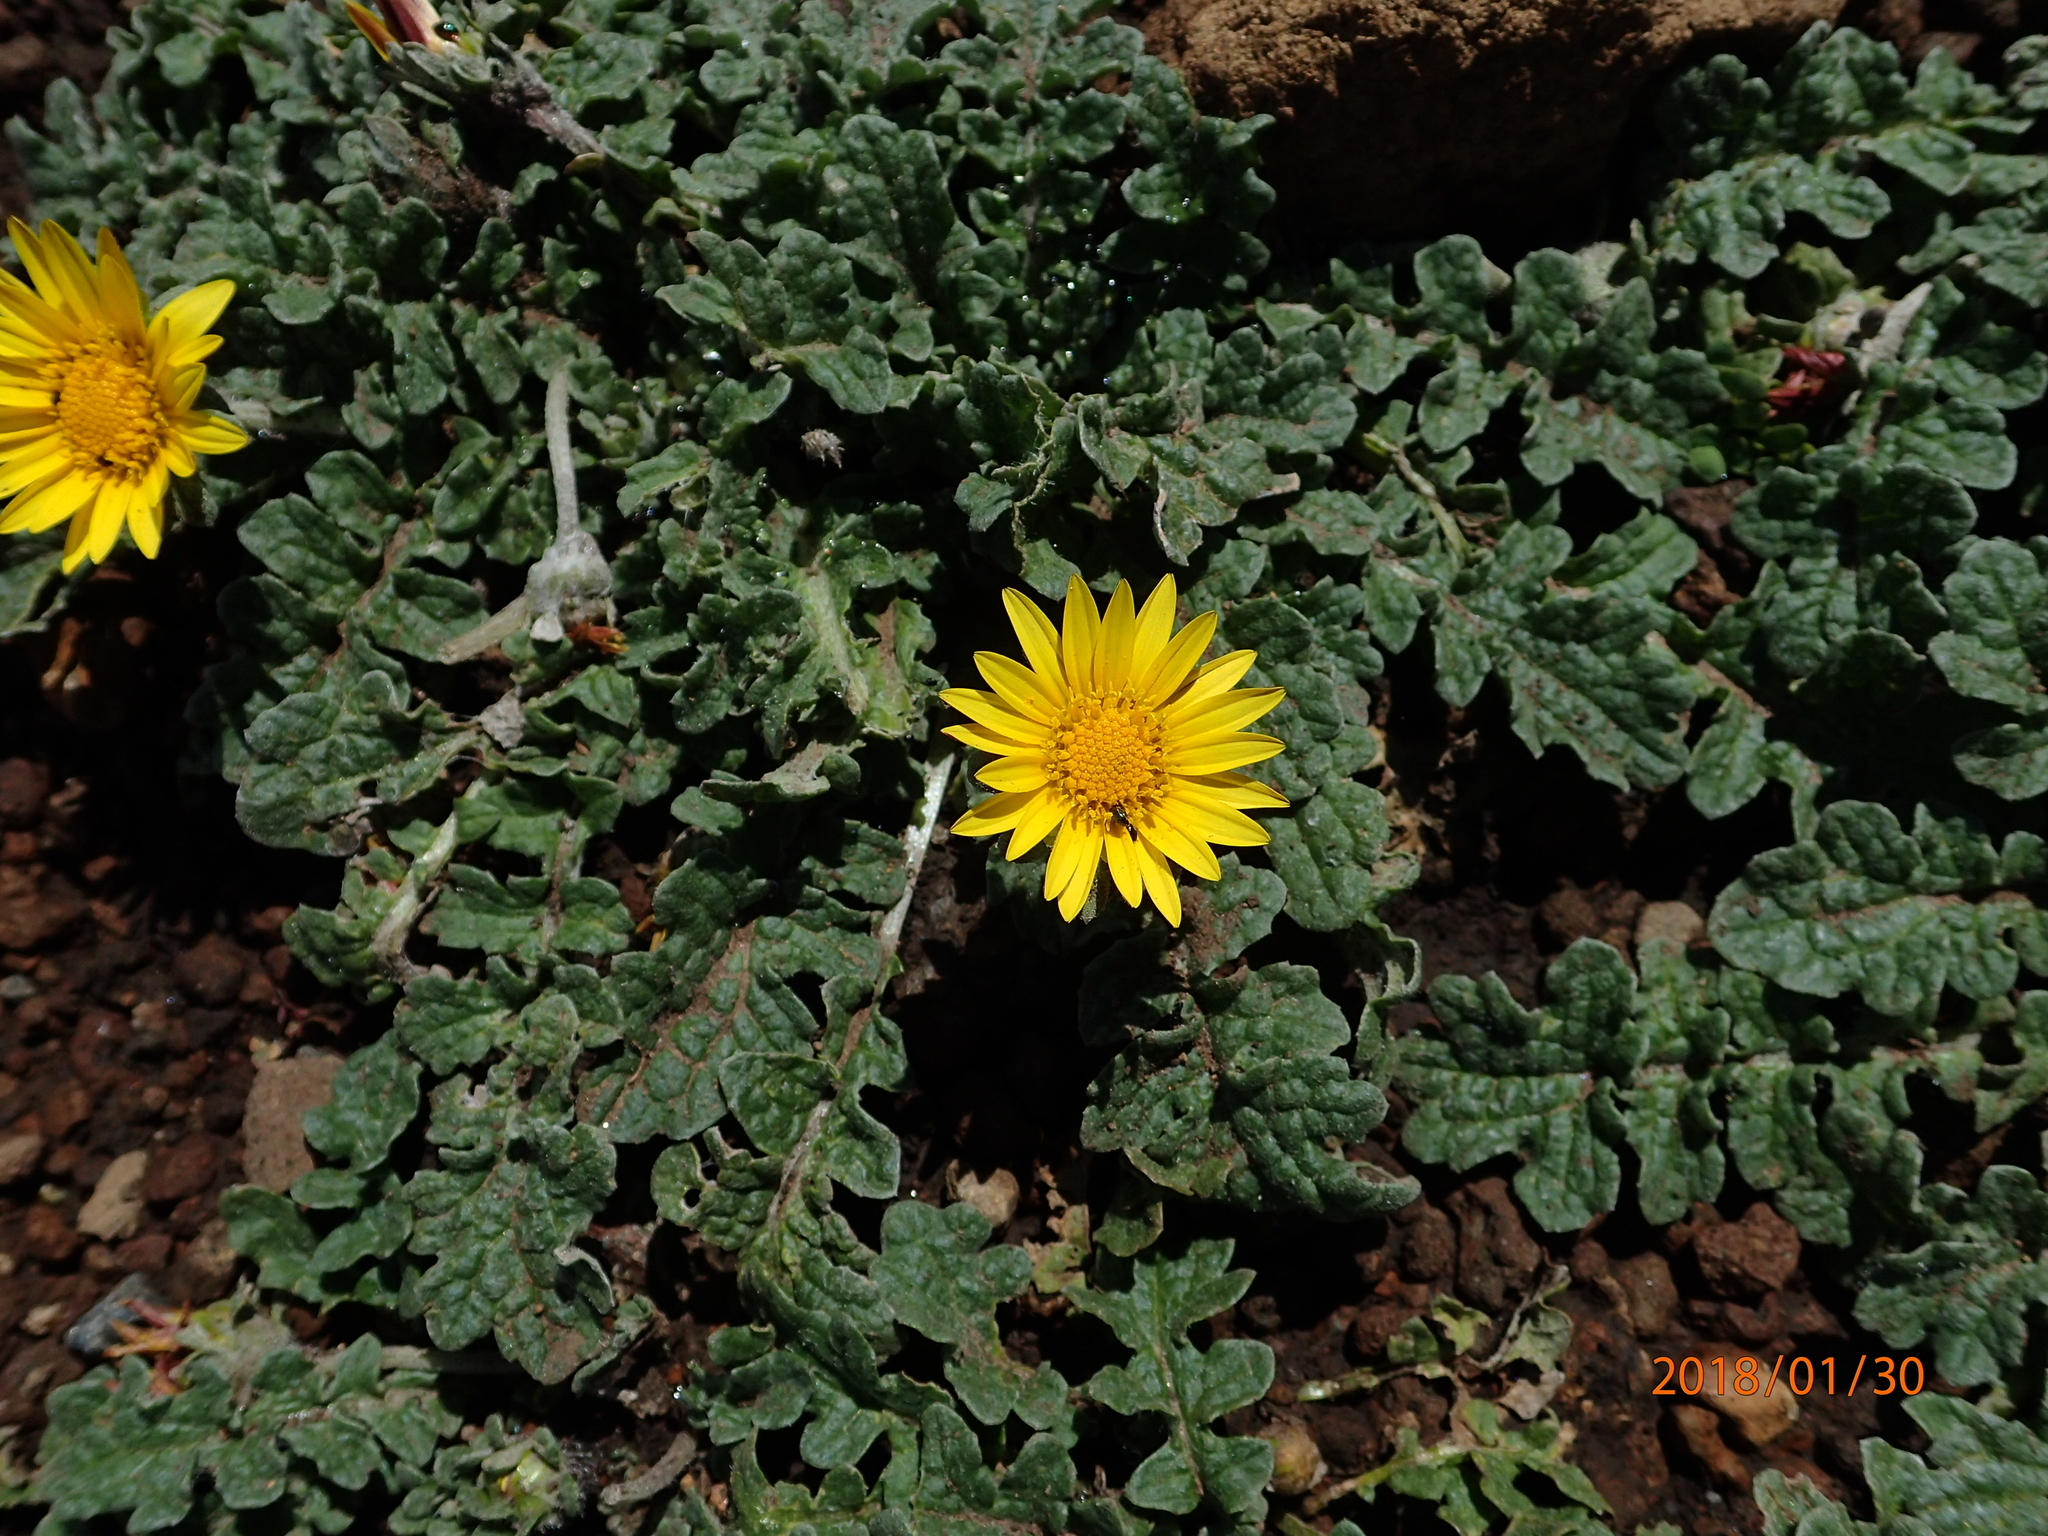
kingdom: Plantae
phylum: Tracheophyta
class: Magnoliopsida
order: Asterales
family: Asteraceae
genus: Arctotis
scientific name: Arctotis arctotoides
